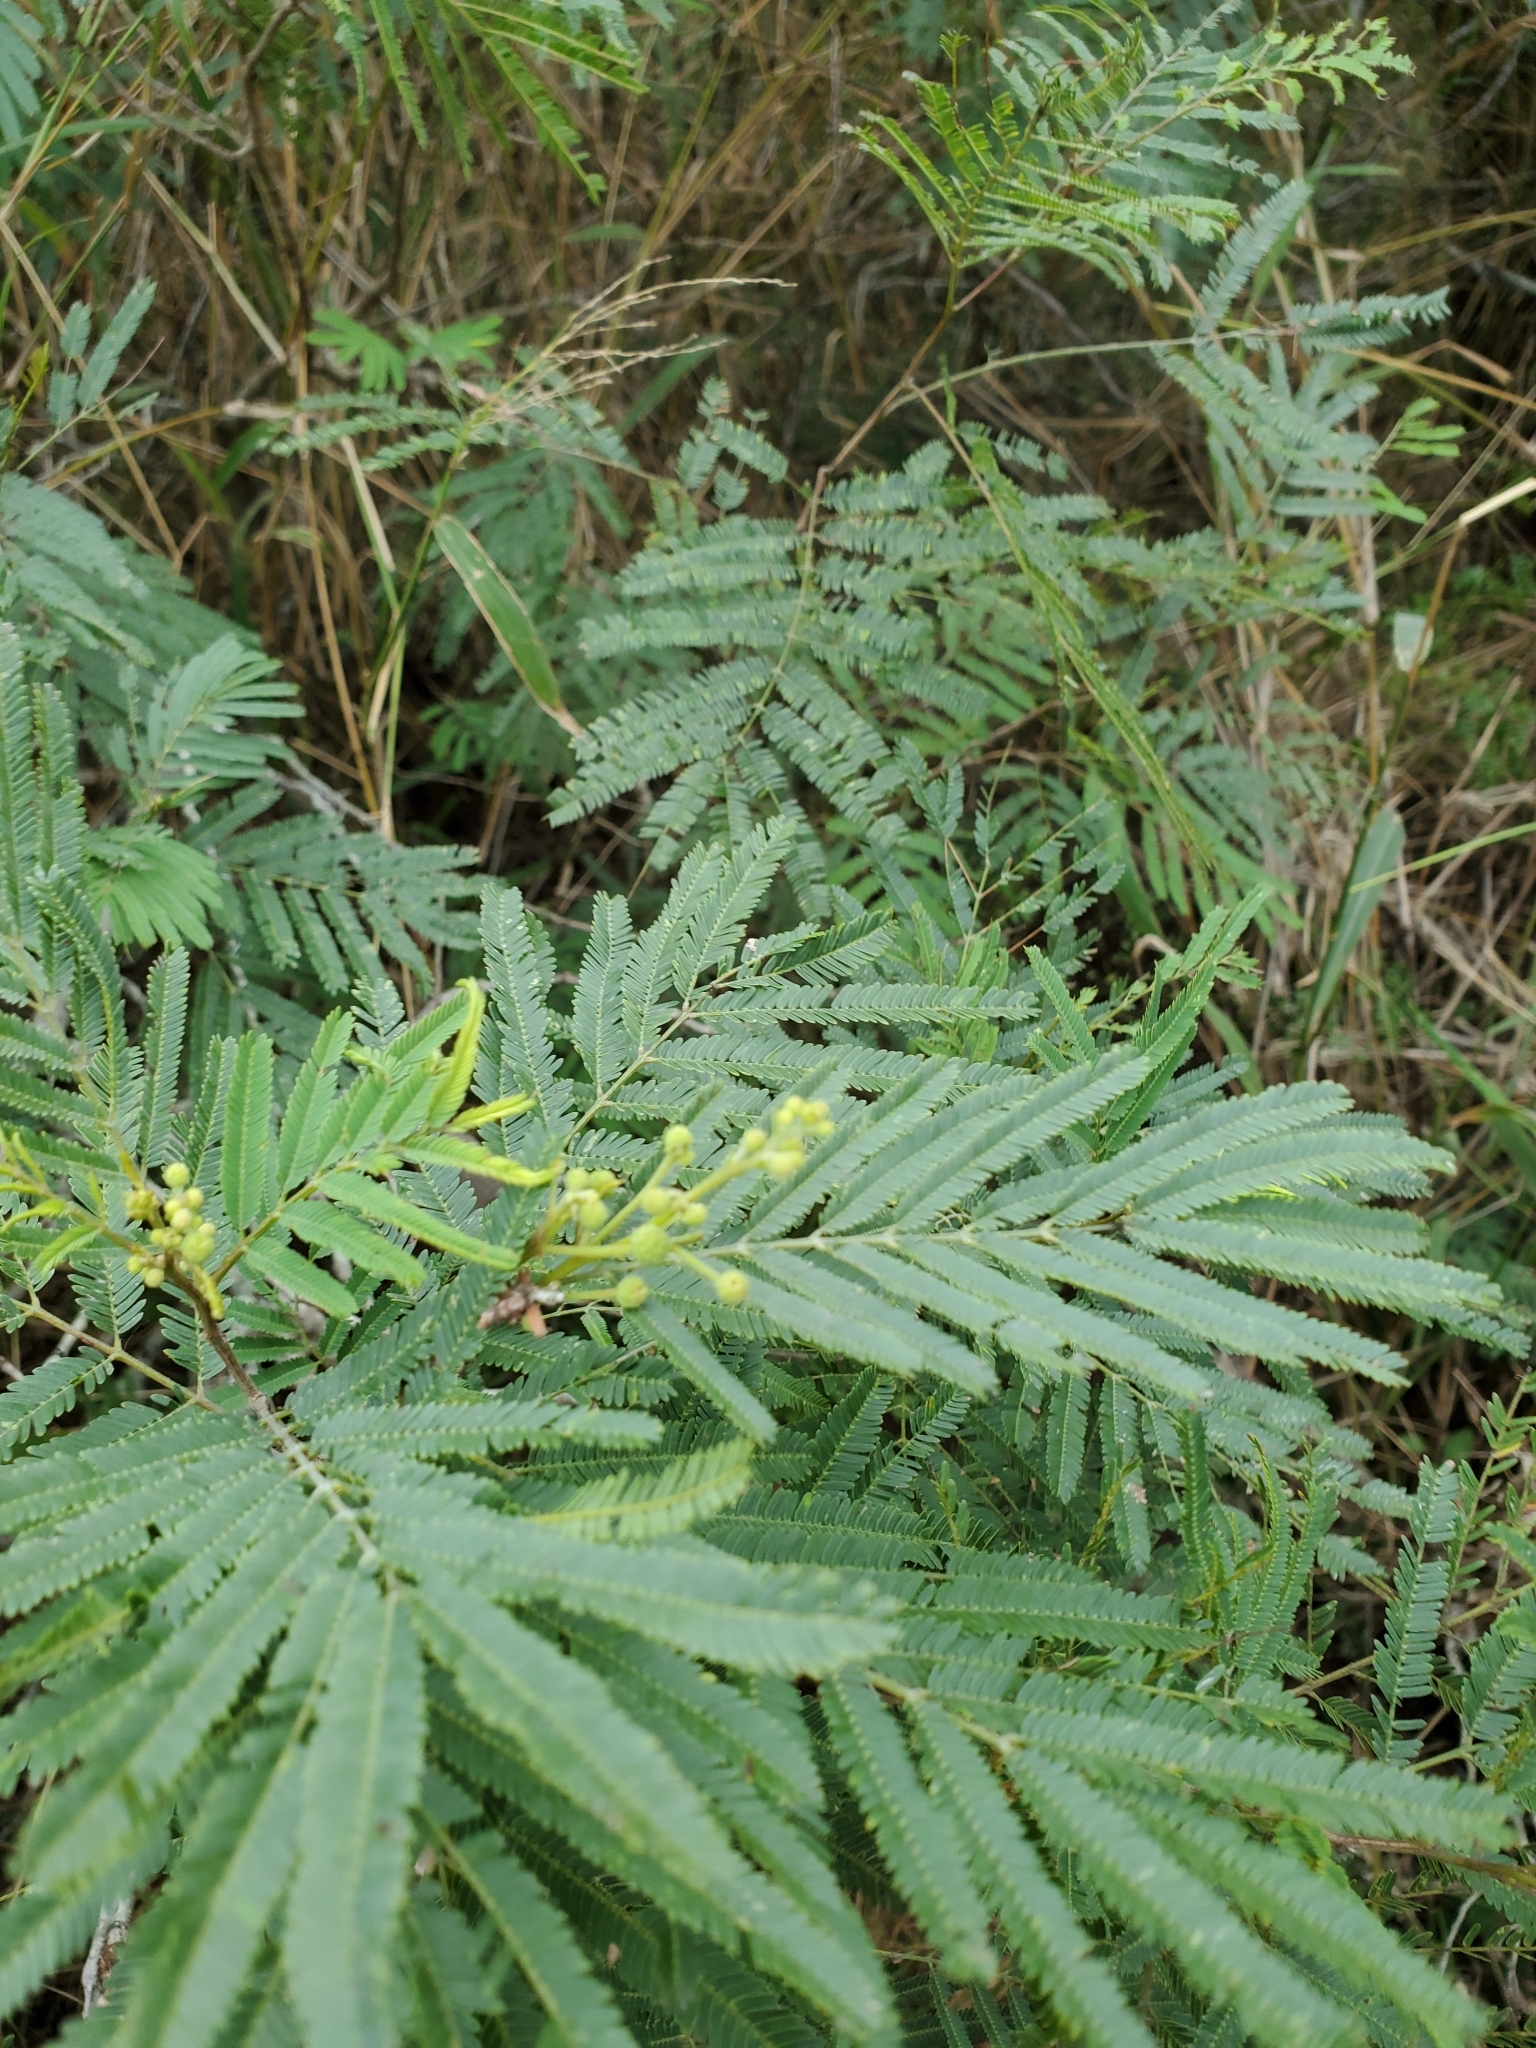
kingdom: Plantae
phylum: Tracheophyta
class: Magnoliopsida
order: Fabales
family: Fabaceae
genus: Senegalia
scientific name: Senegalia berlandieri
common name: Berlandier acacia
